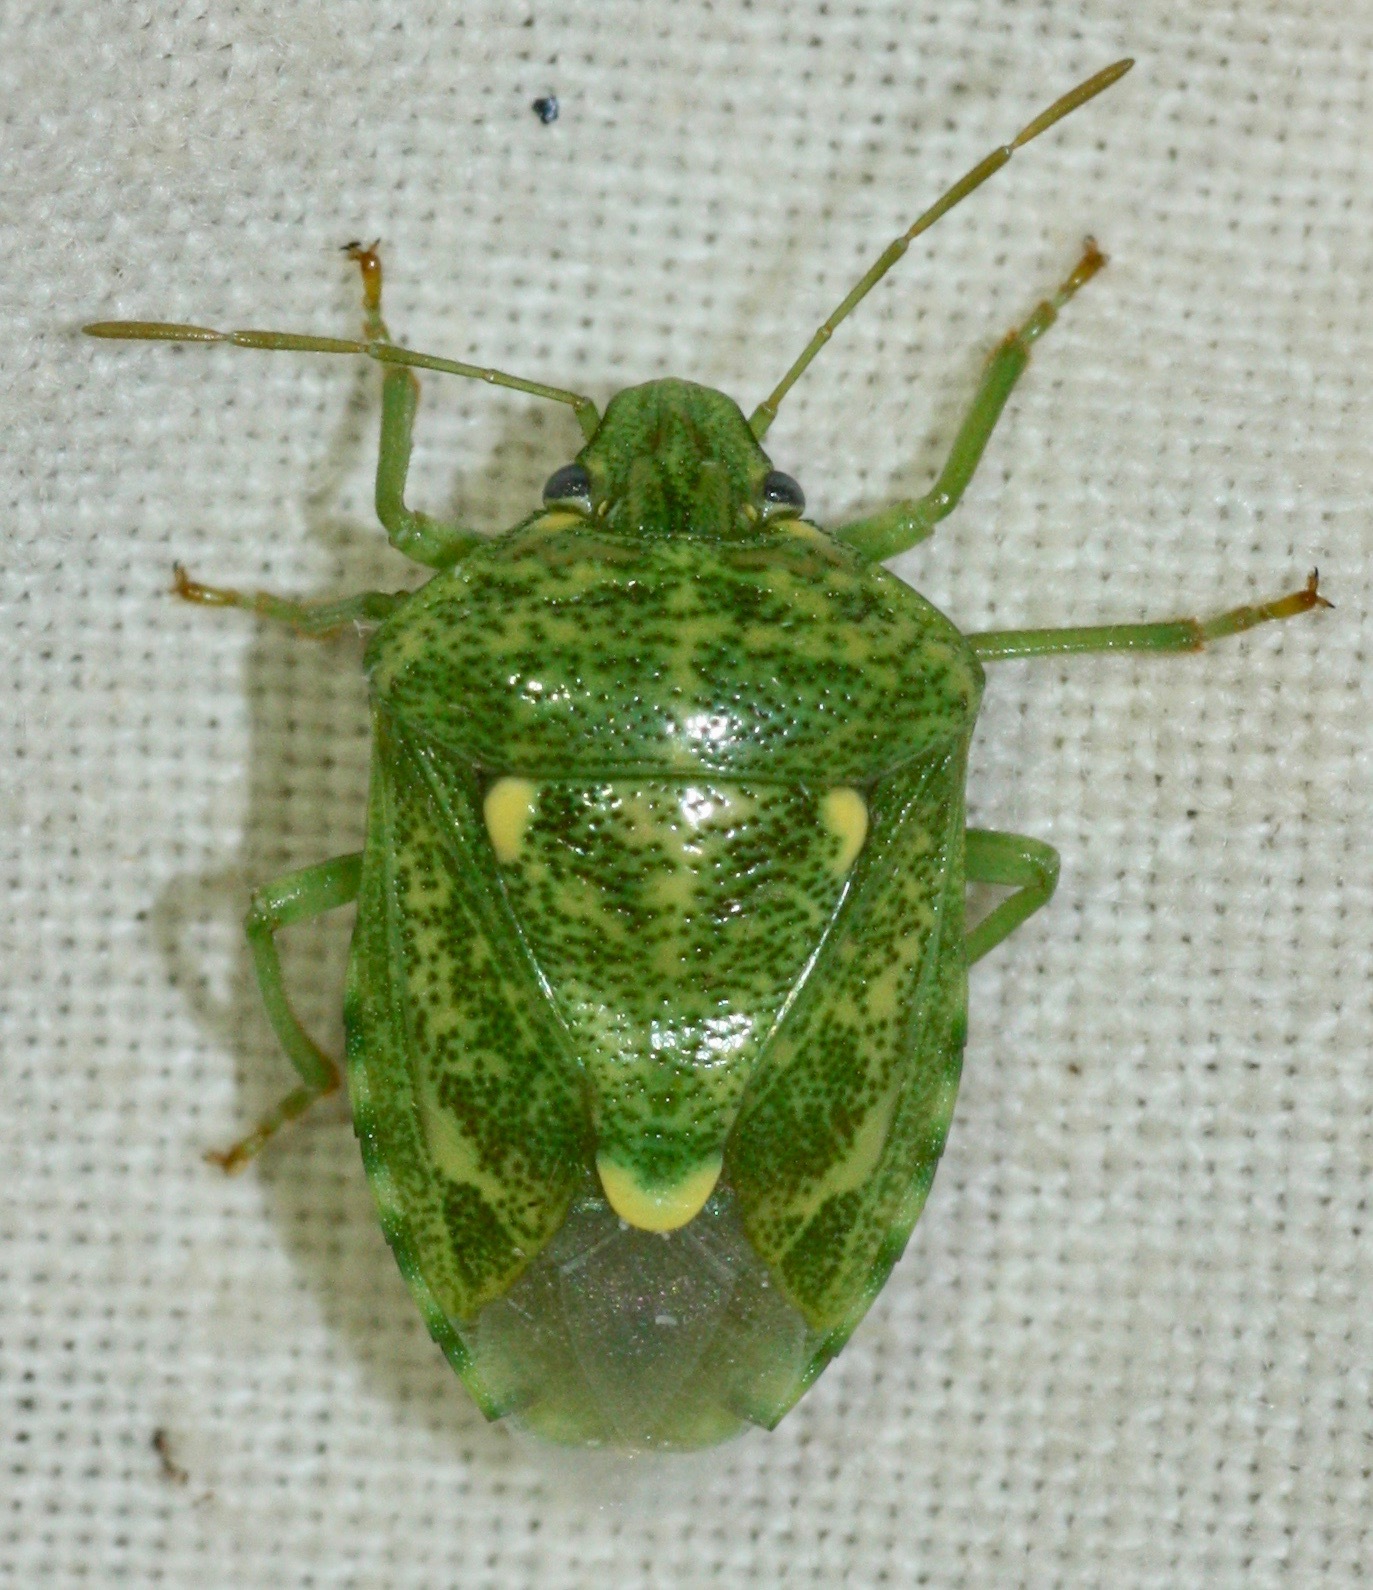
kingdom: Animalia
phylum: Arthropoda
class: Insecta
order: Hemiptera
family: Pentatomidae
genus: Banasa
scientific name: Banasa euchlora
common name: Cedar berry bug
